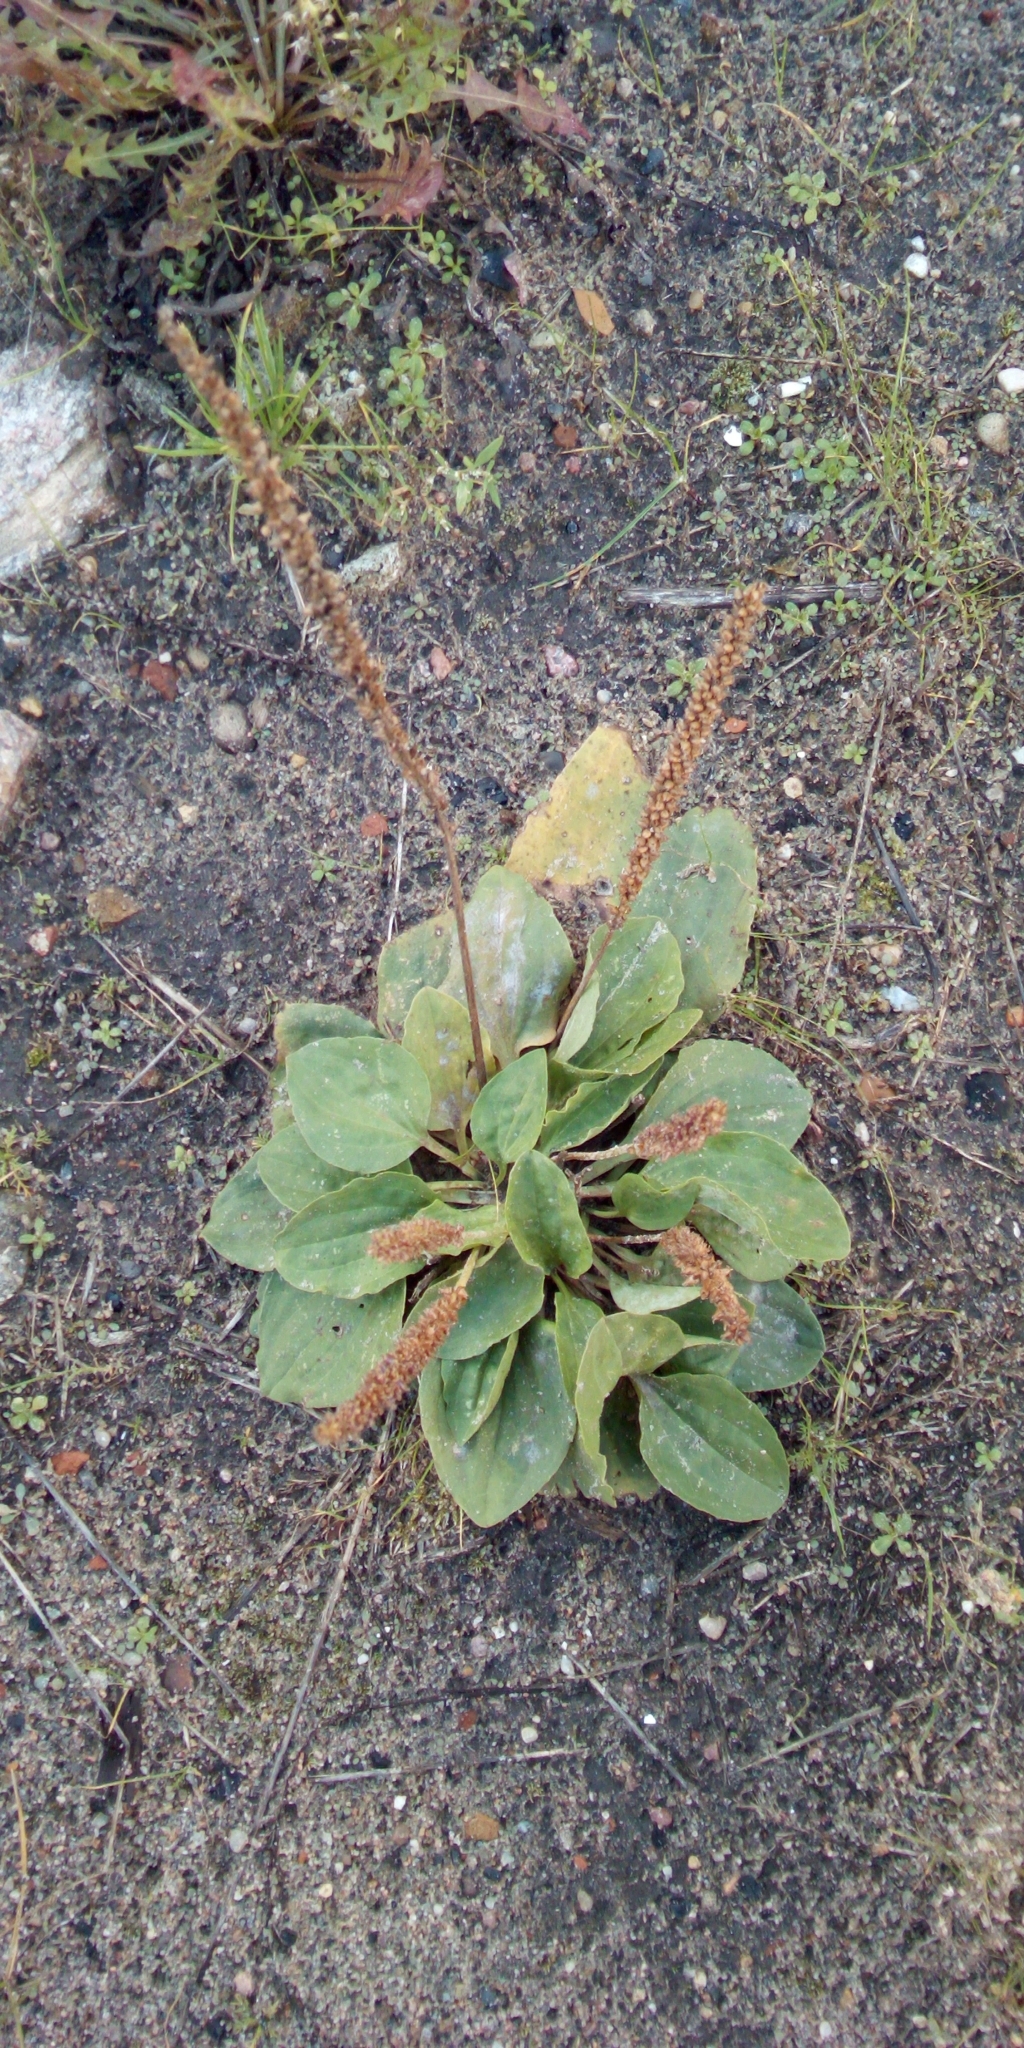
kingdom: Plantae
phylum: Tracheophyta
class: Magnoliopsida
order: Lamiales
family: Plantaginaceae
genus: Plantago
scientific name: Plantago major
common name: Common plantain
